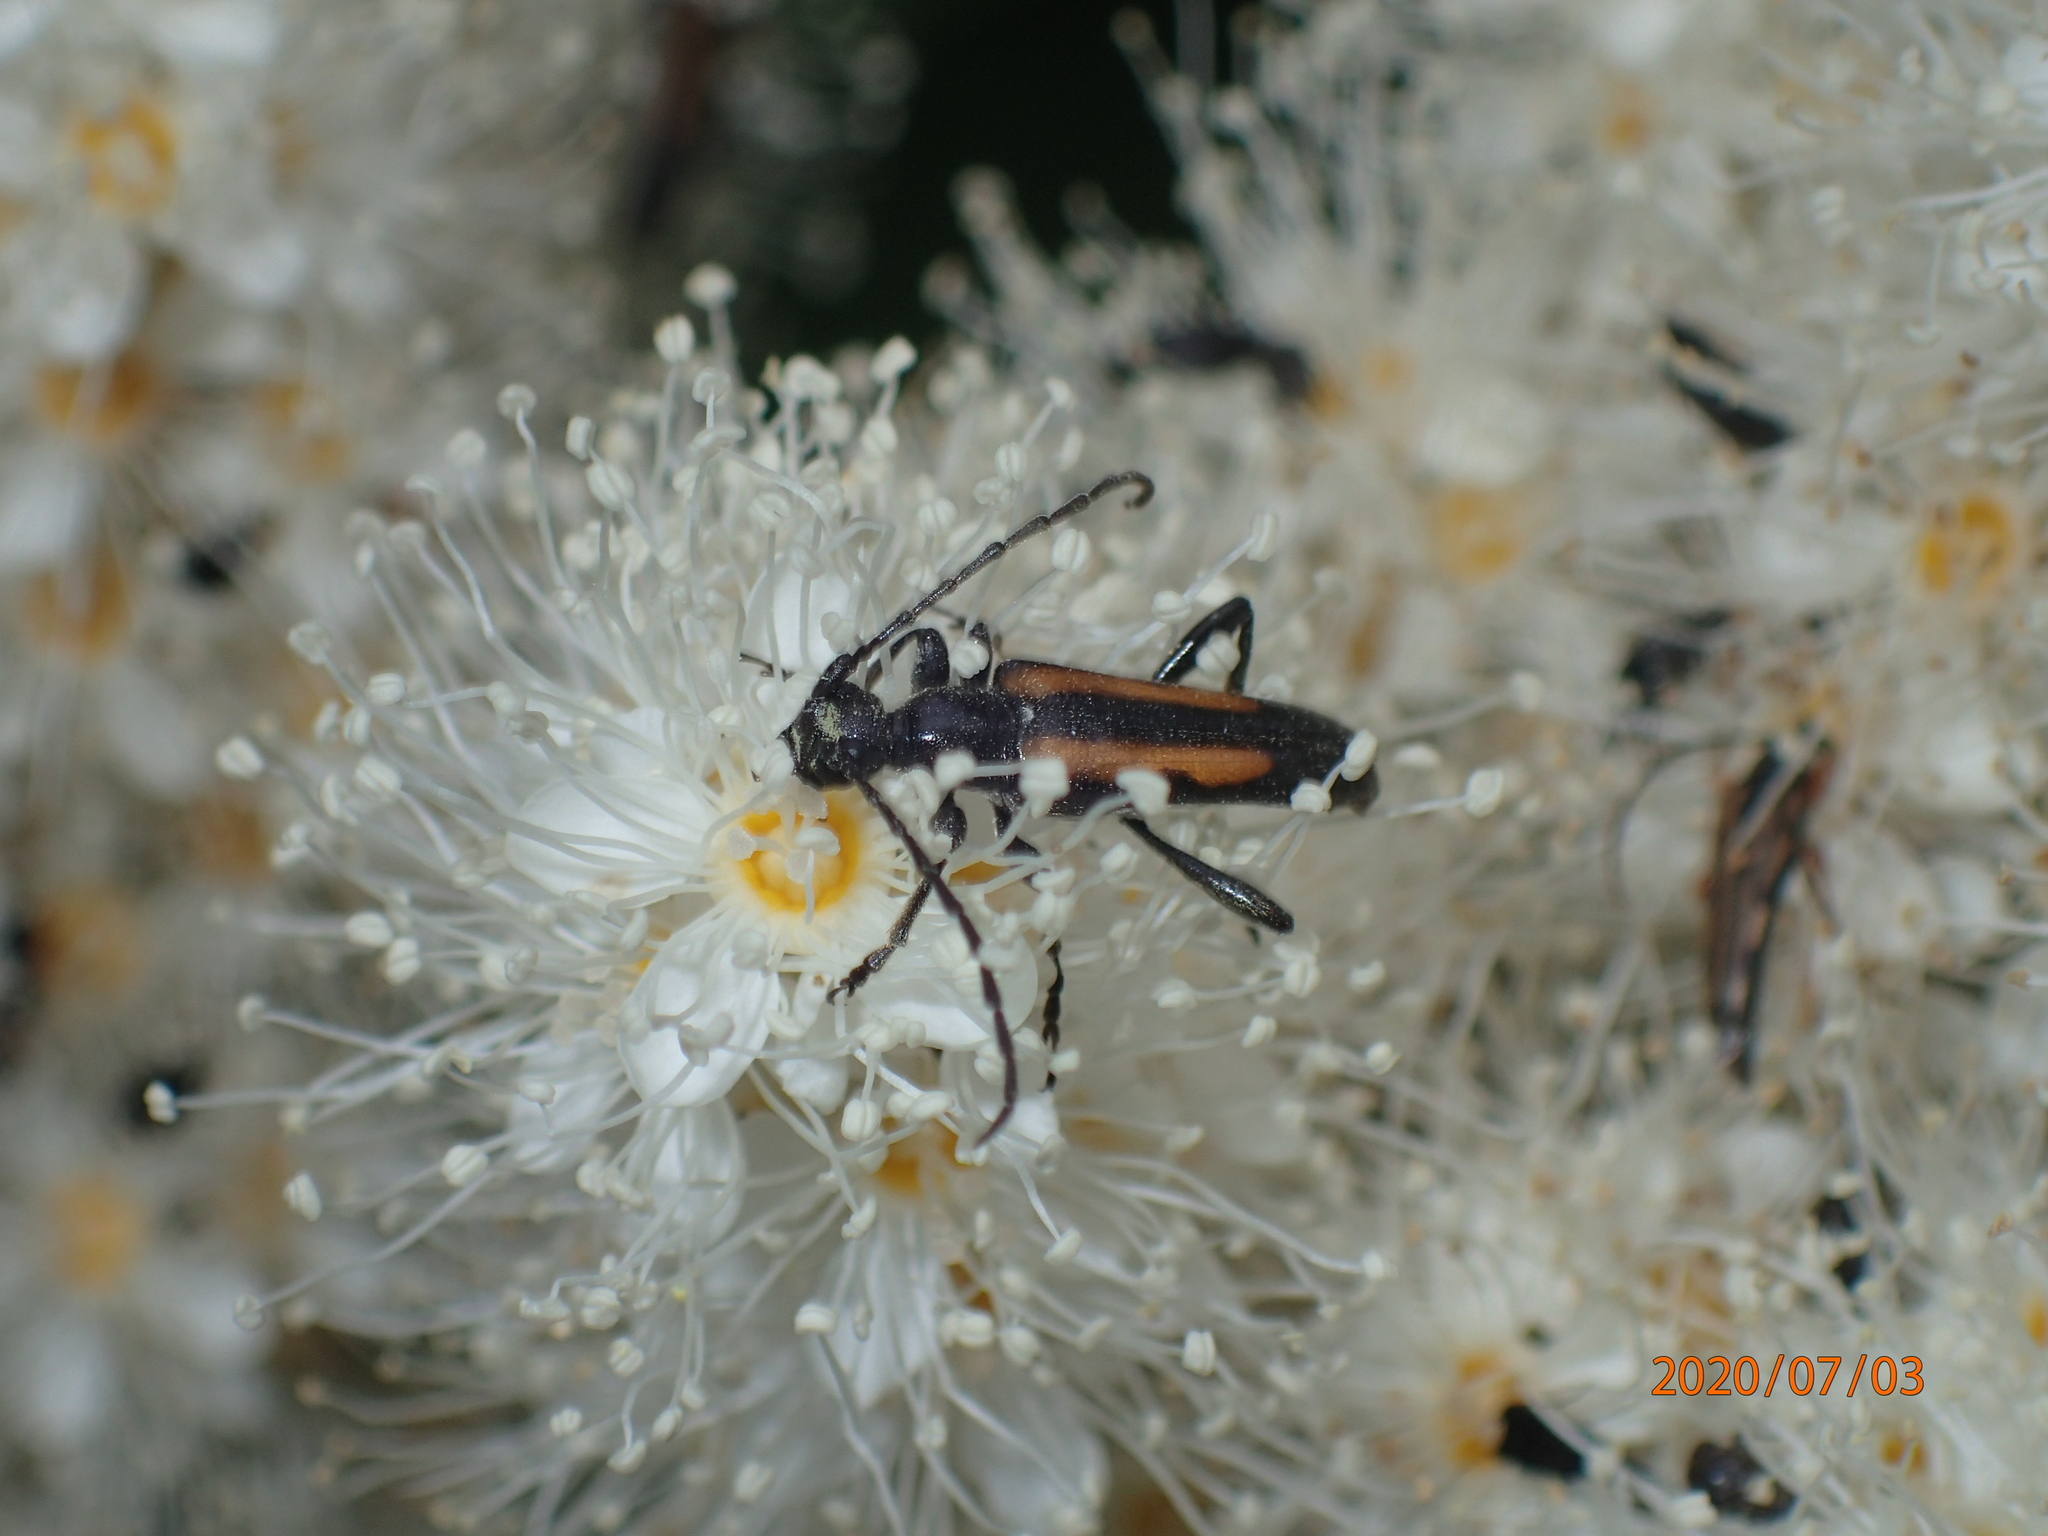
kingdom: Animalia
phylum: Arthropoda
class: Insecta
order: Coleoptera
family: Cerambycidae
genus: Strangalepta
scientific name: Strangalepta abbreviata
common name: Strangalepta flower longhorn beetle
